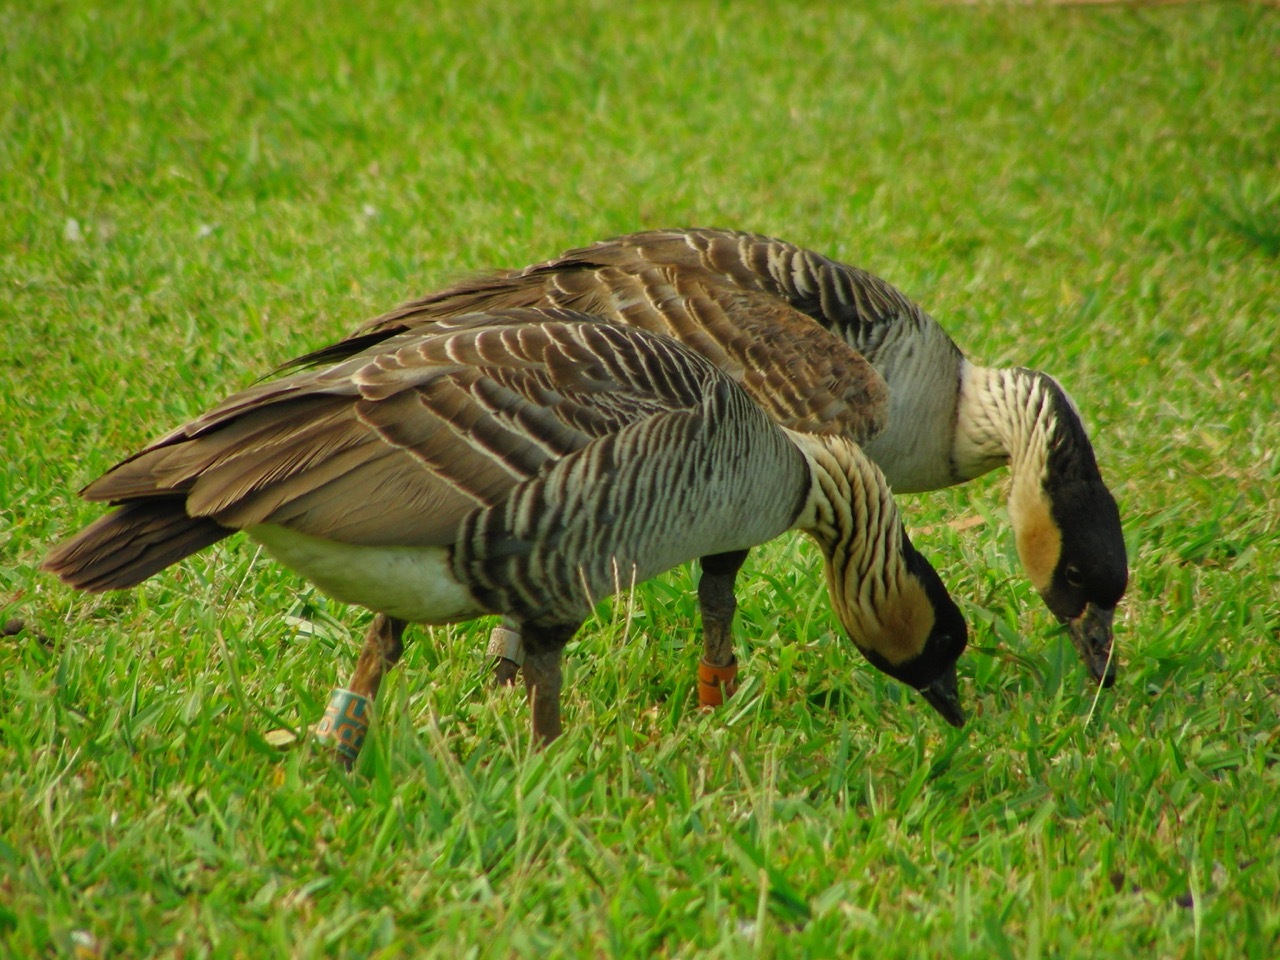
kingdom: Animalia
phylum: Chordata
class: Aves
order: Anseriformes
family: Anatidae
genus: Branta
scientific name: Branta sandvicensis
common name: Nene
